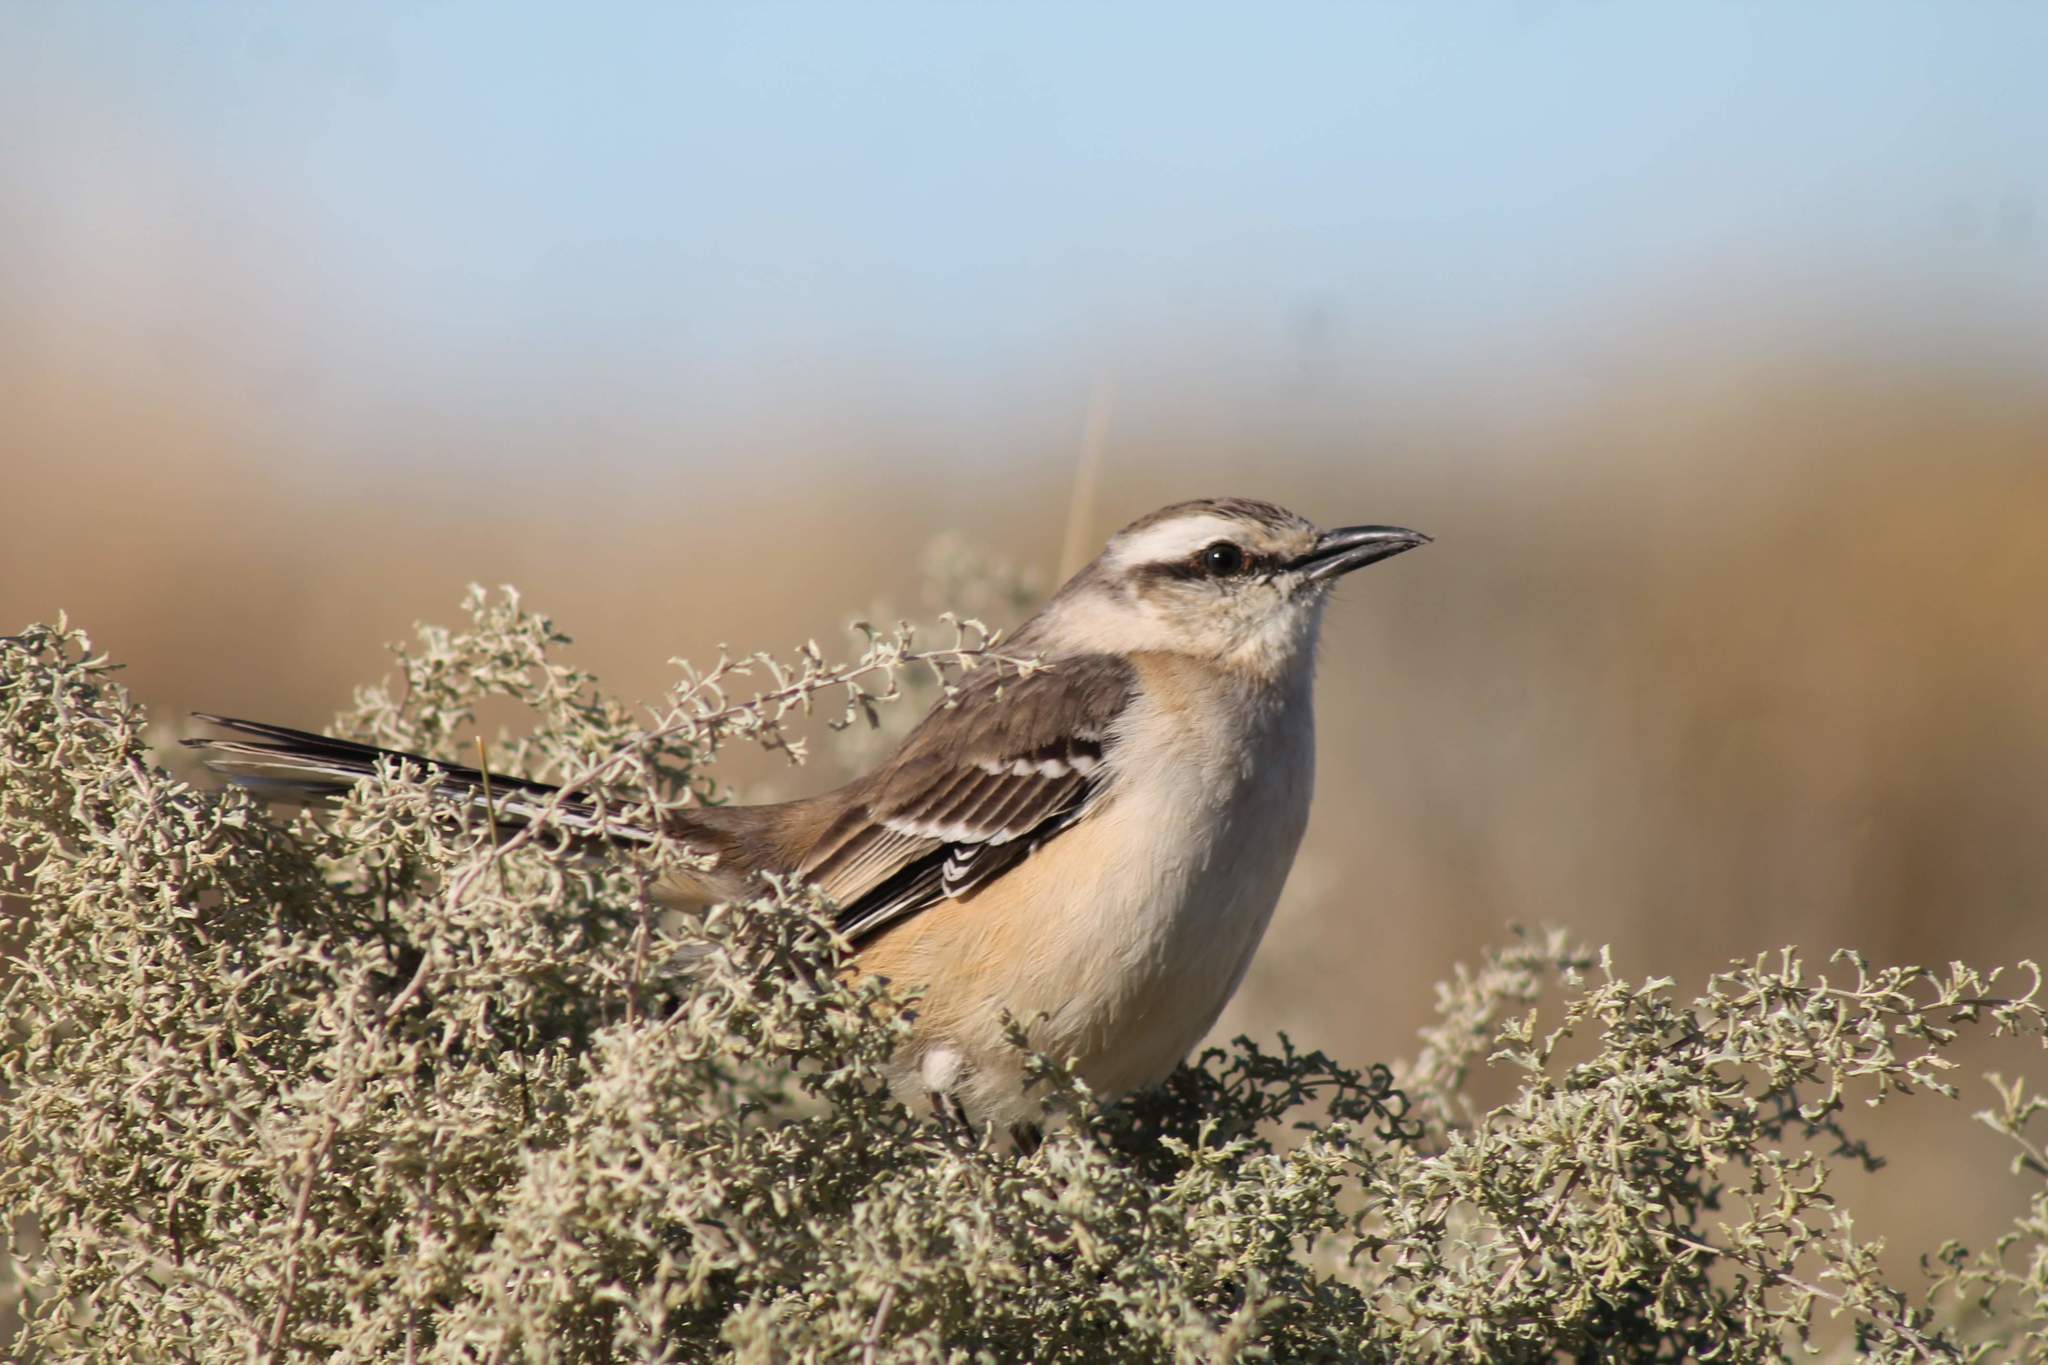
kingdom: Animalia
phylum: Chordata
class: Aves
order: Passeriformes
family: Mimidae
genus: Mimus
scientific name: Mimus saturninus
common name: Chalk-browed mockingbird
